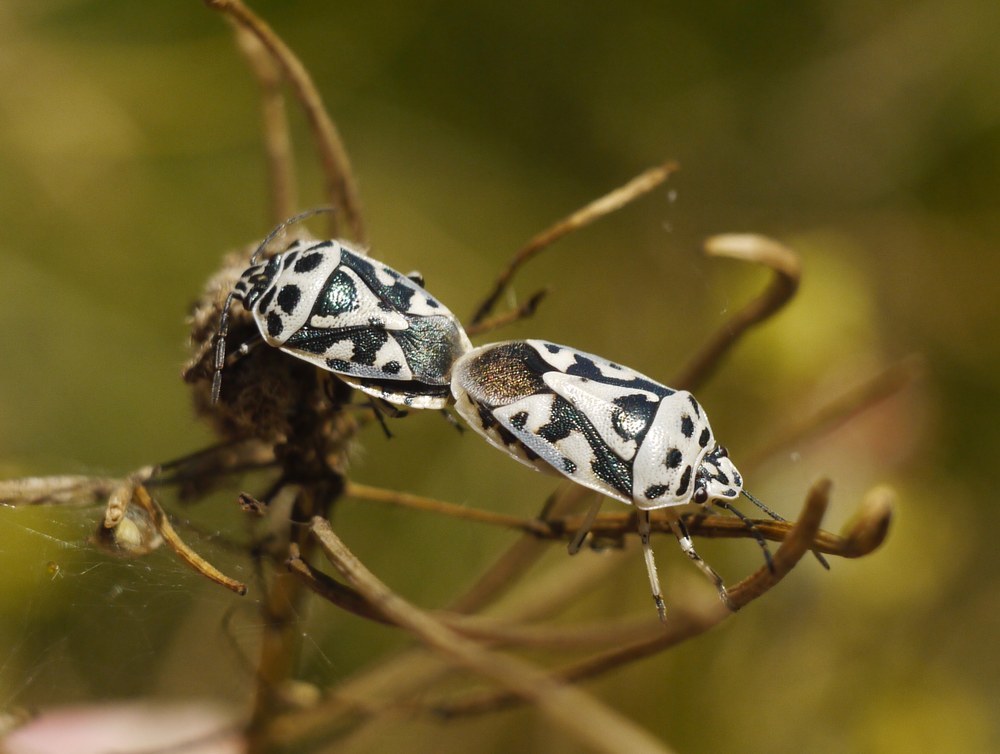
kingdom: Animalia
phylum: Arthropoda
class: Insecta
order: Hemiptera
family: Pentatomidae
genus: Eurydema
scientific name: Eurydema ornata
